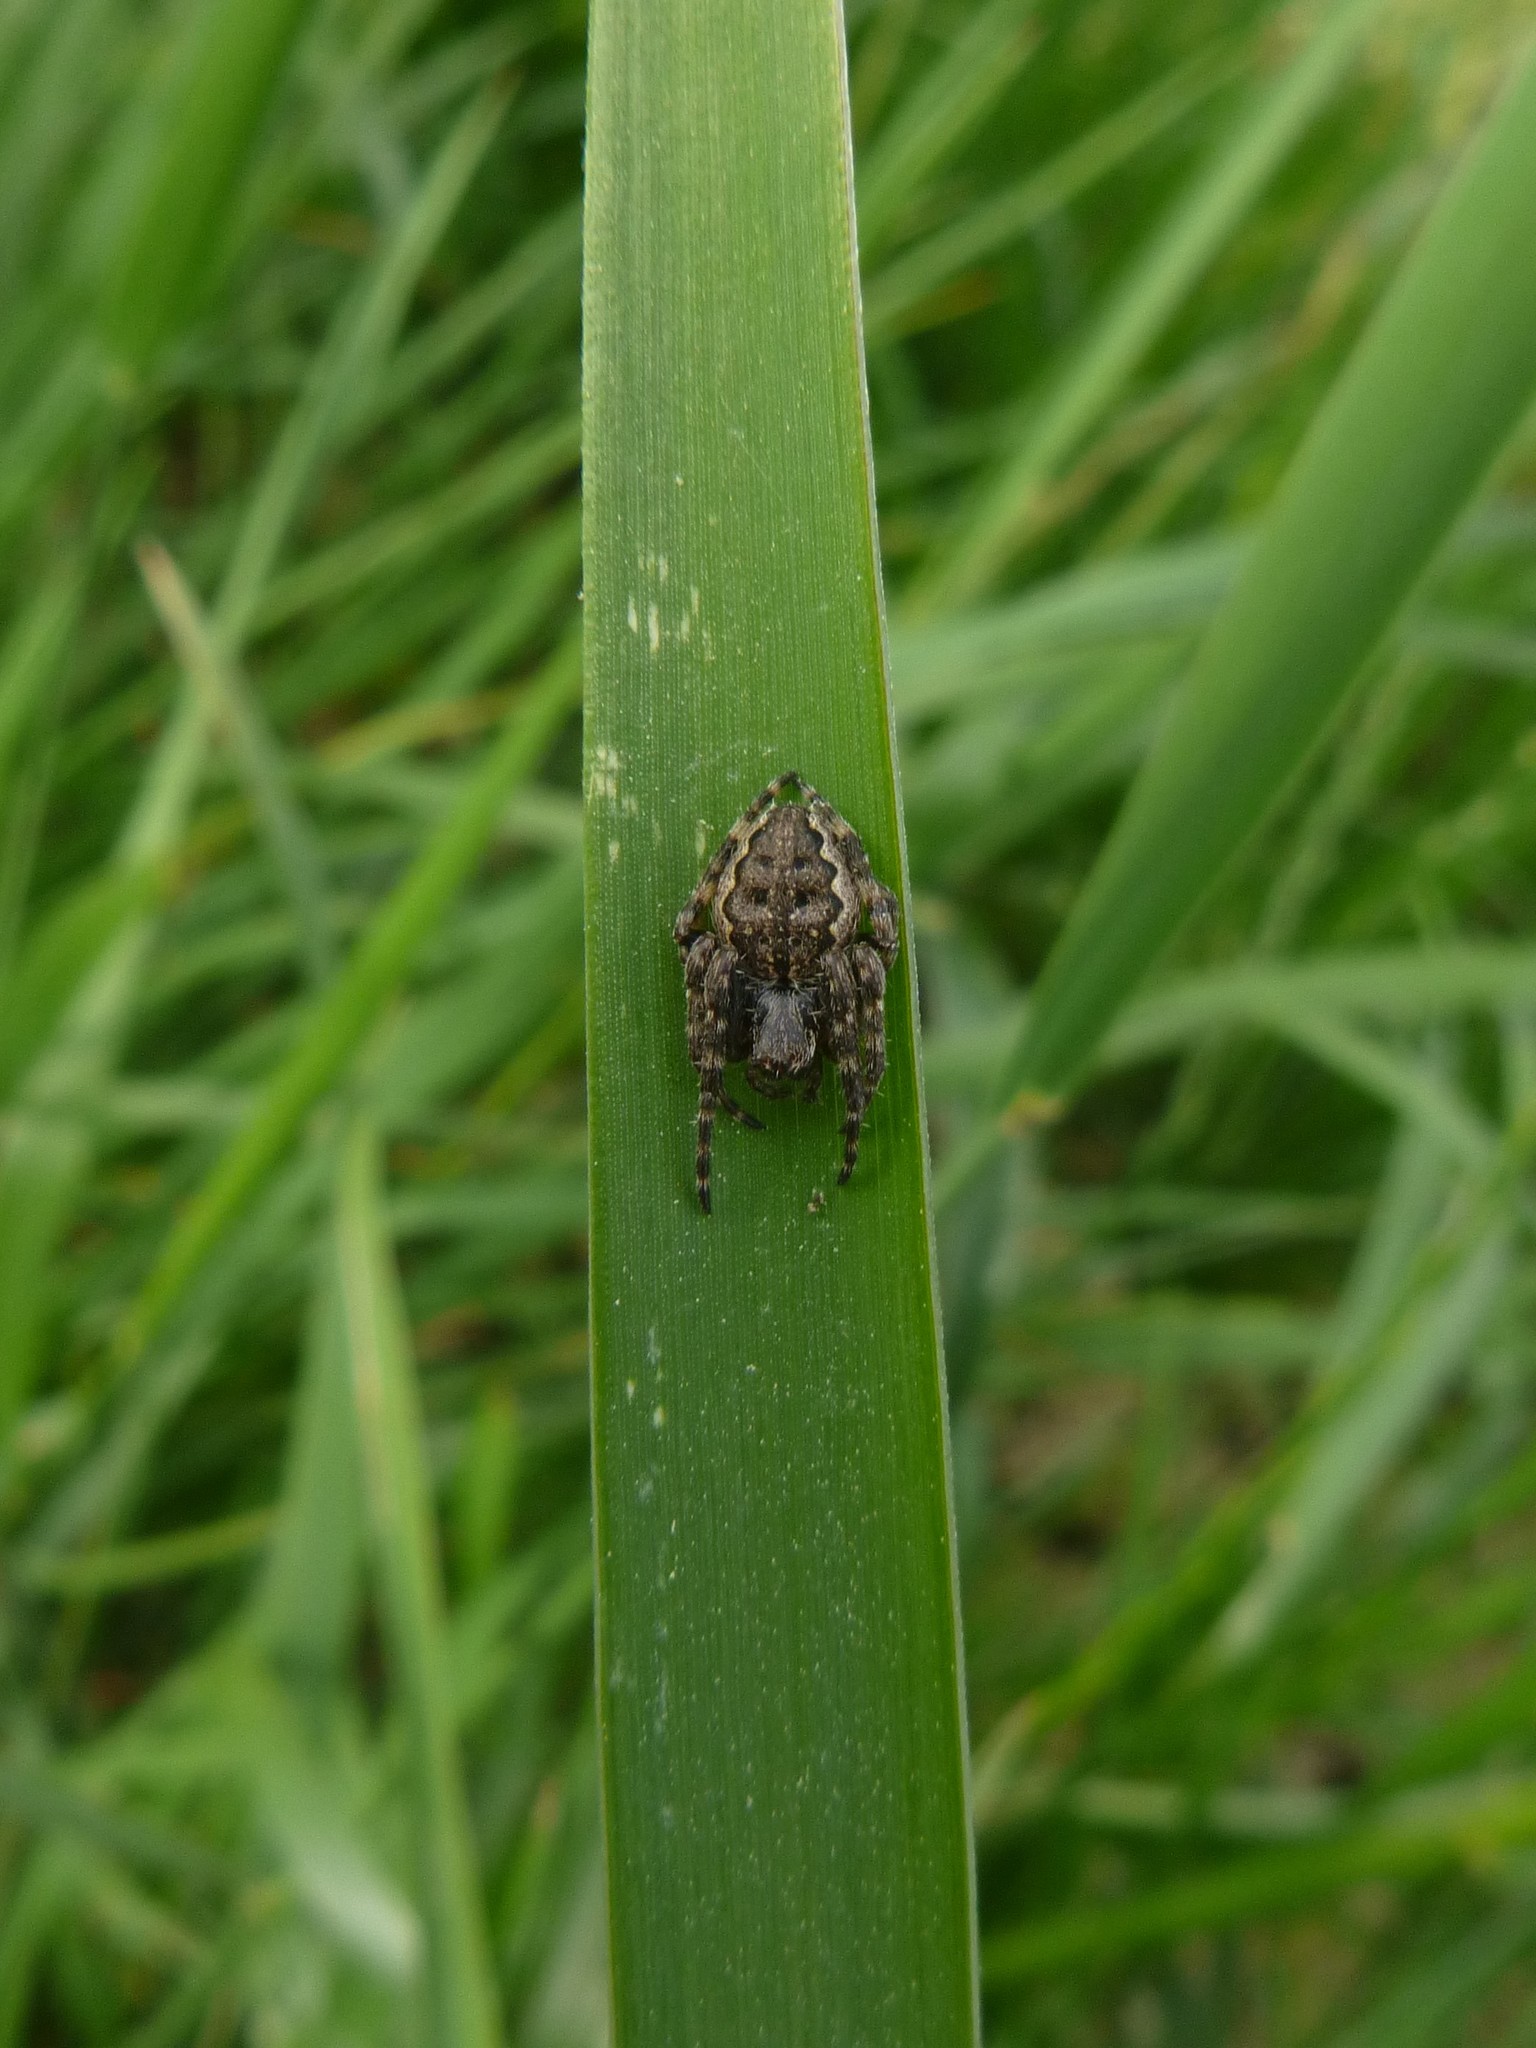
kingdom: Animalia
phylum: Arthropoda
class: Arachnida
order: Araneae
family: Araneidae
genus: Nuctenea
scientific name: Nuctenea umbratica
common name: Toad spider
